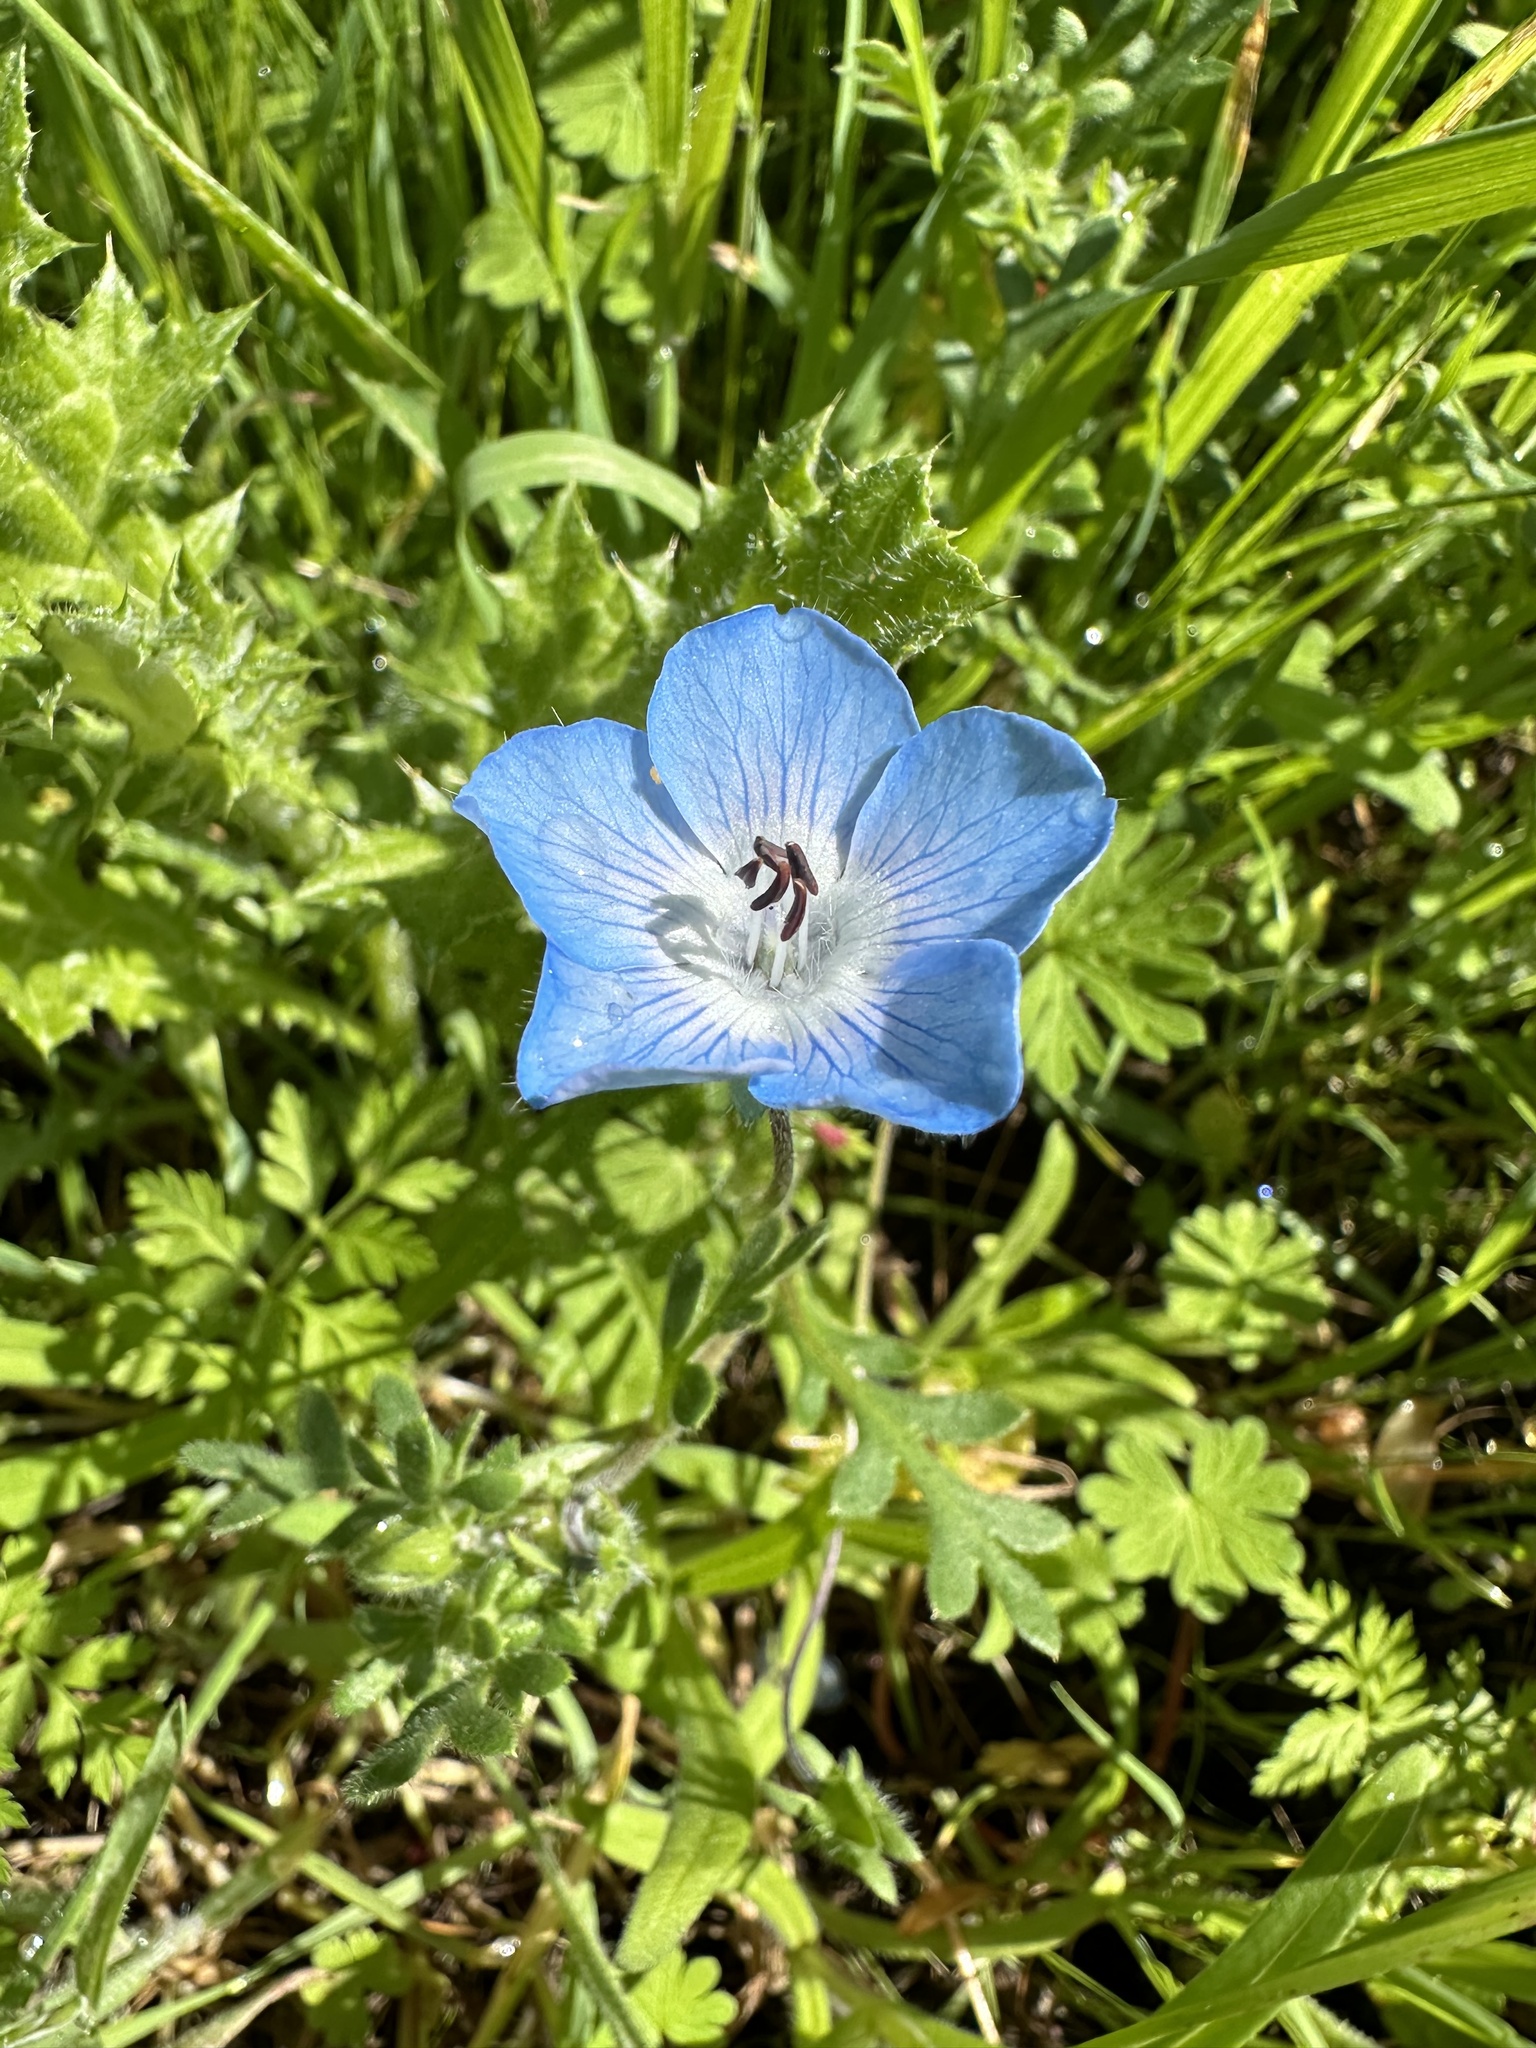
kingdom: Plantae
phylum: Tracheophyta
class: Magnoliopsida
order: Boraginales
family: Hydrophyllaceae
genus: Nemophila
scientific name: Nemophila menziesii
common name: Baby's-blue-eyes
